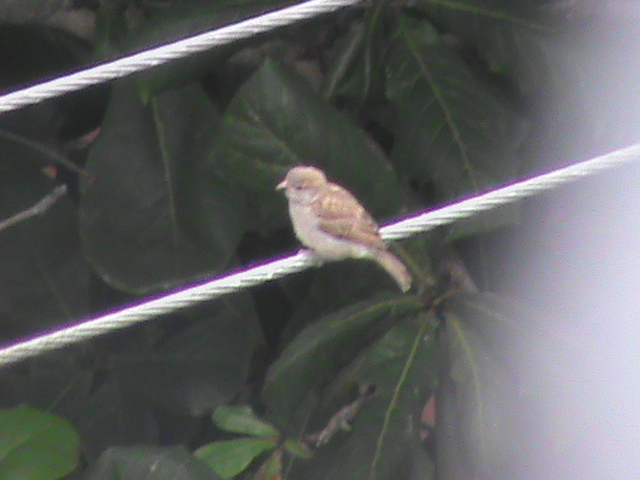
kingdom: Animalia
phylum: Chordata
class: Aves
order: Passeriformes
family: Passeridae
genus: Passer
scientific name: Passer domesticus
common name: House sparrow
